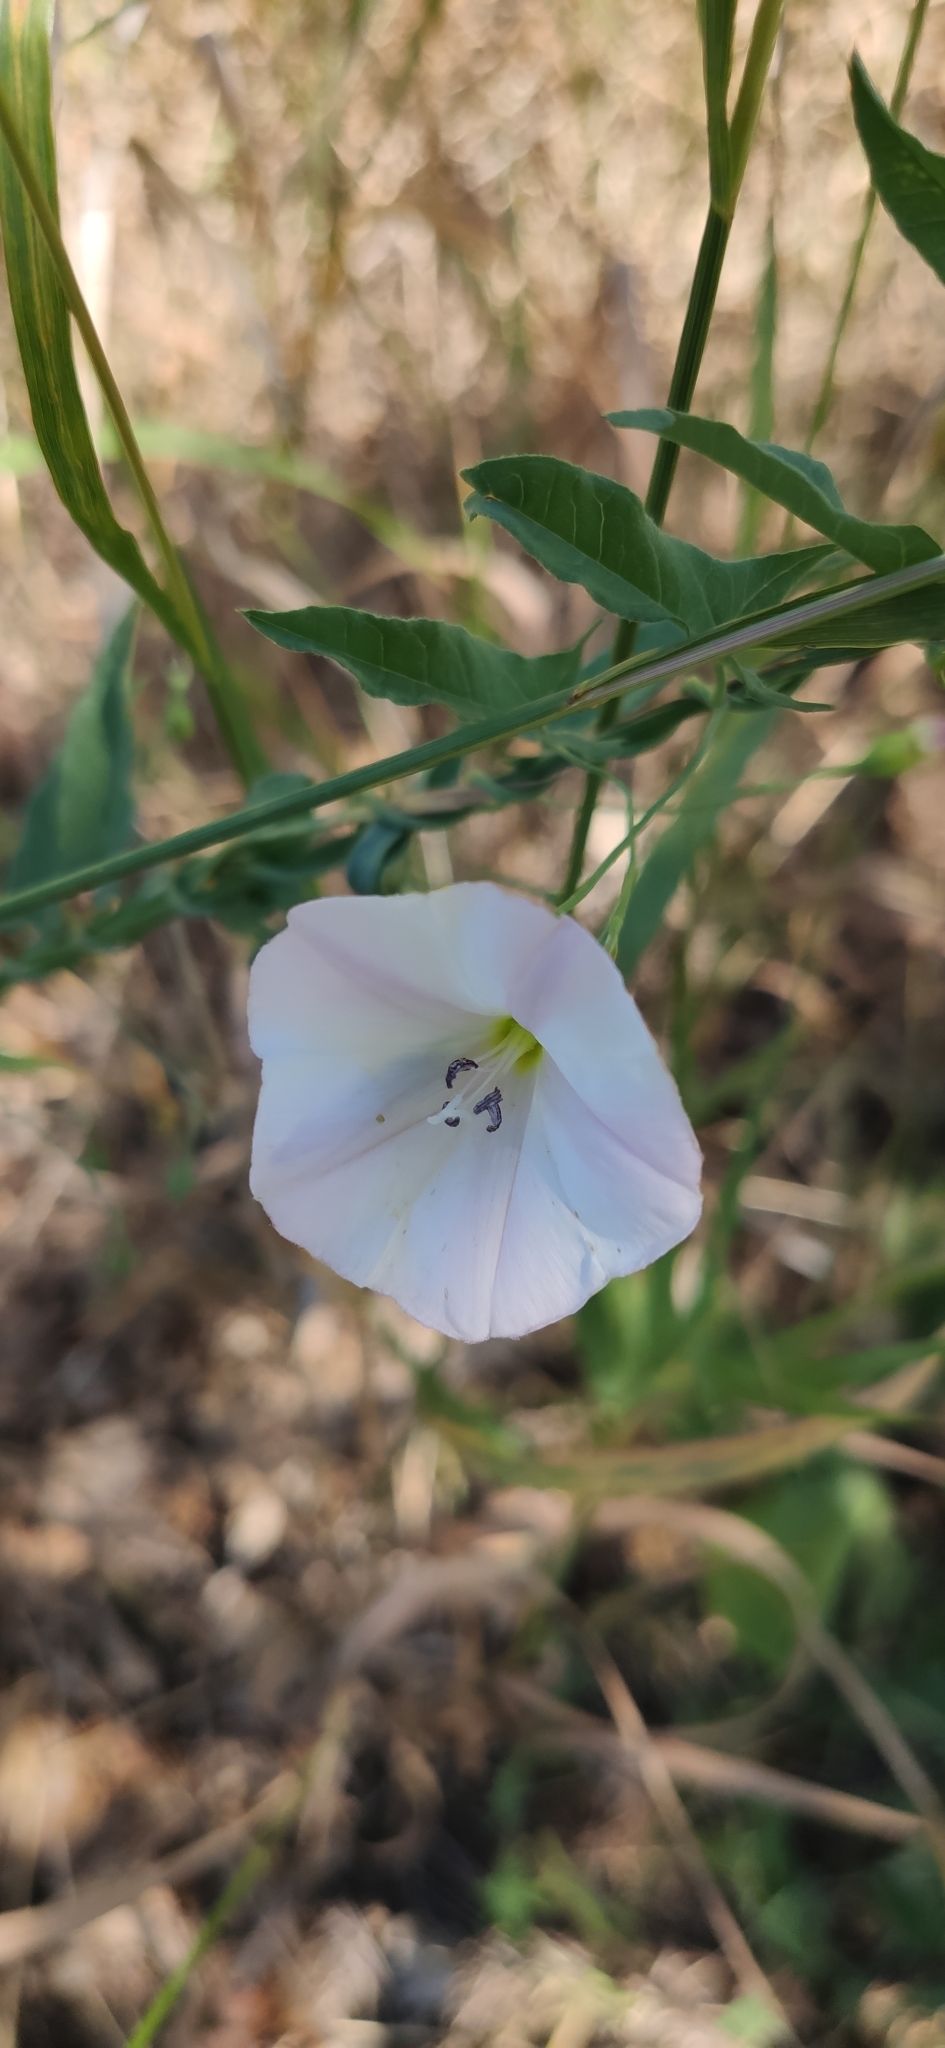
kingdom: Plantae
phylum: Tracheophyta
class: Magnoliopsida
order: Solanales
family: Convolvulaceae
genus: Convolvulus
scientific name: Convolvulus arvensis
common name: Field bindweed
